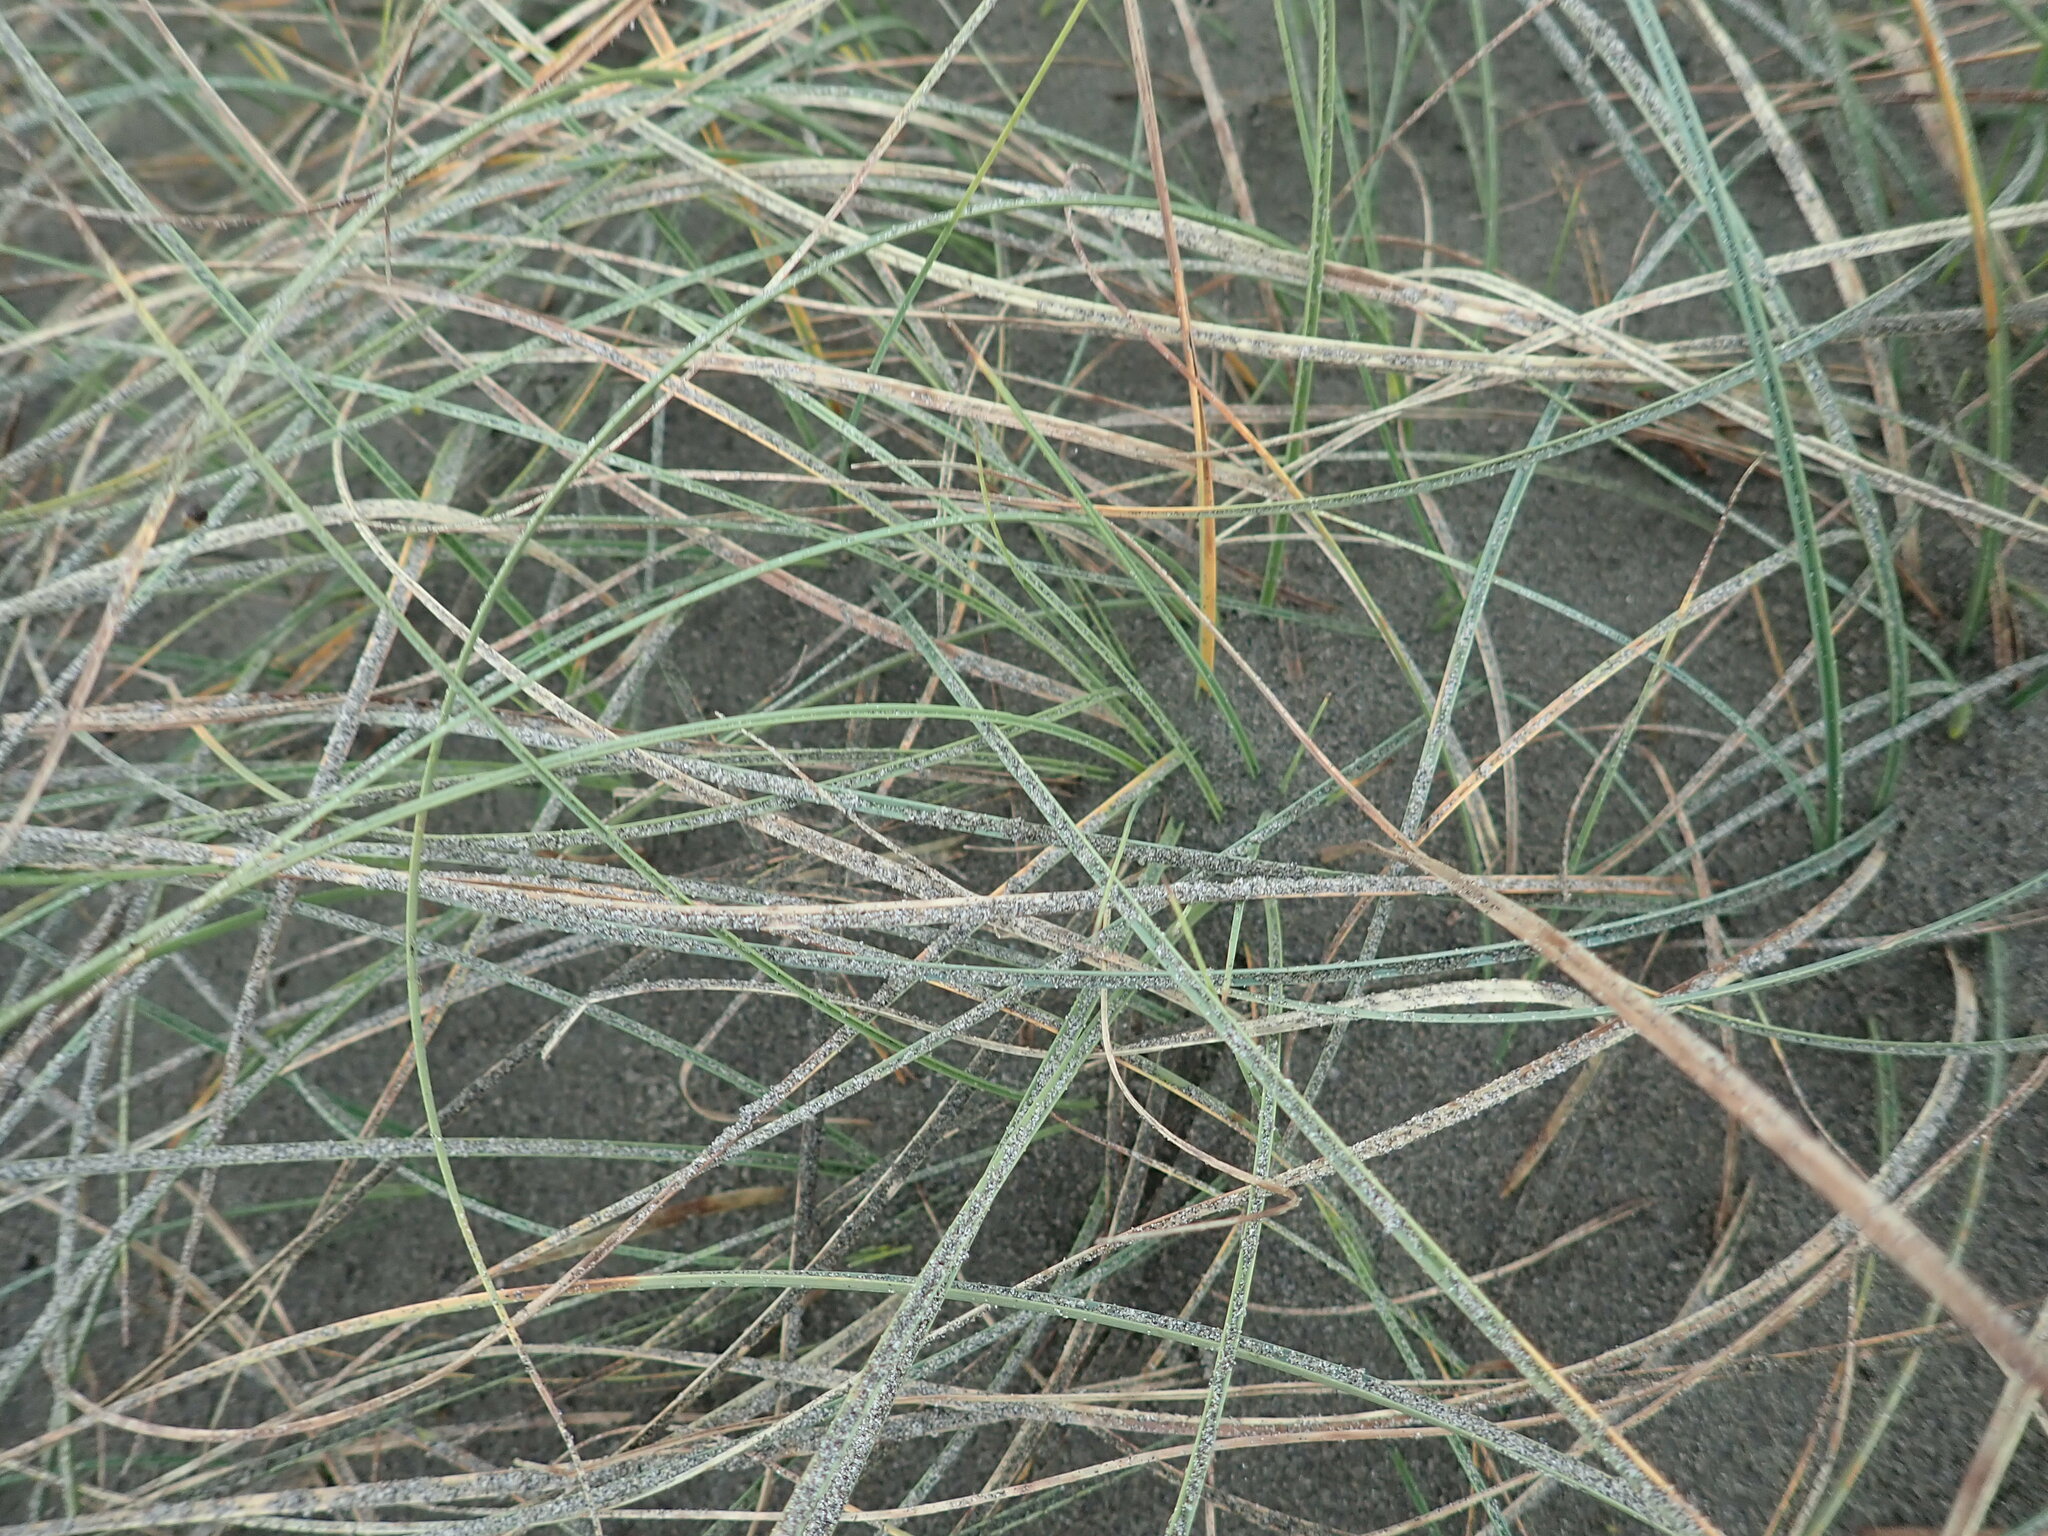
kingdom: Plantae
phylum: Tracheophyta
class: Liliopsida
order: Poales
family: Cyperaceae
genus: Carex
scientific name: Carex pumila
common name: Dwarf sedge
